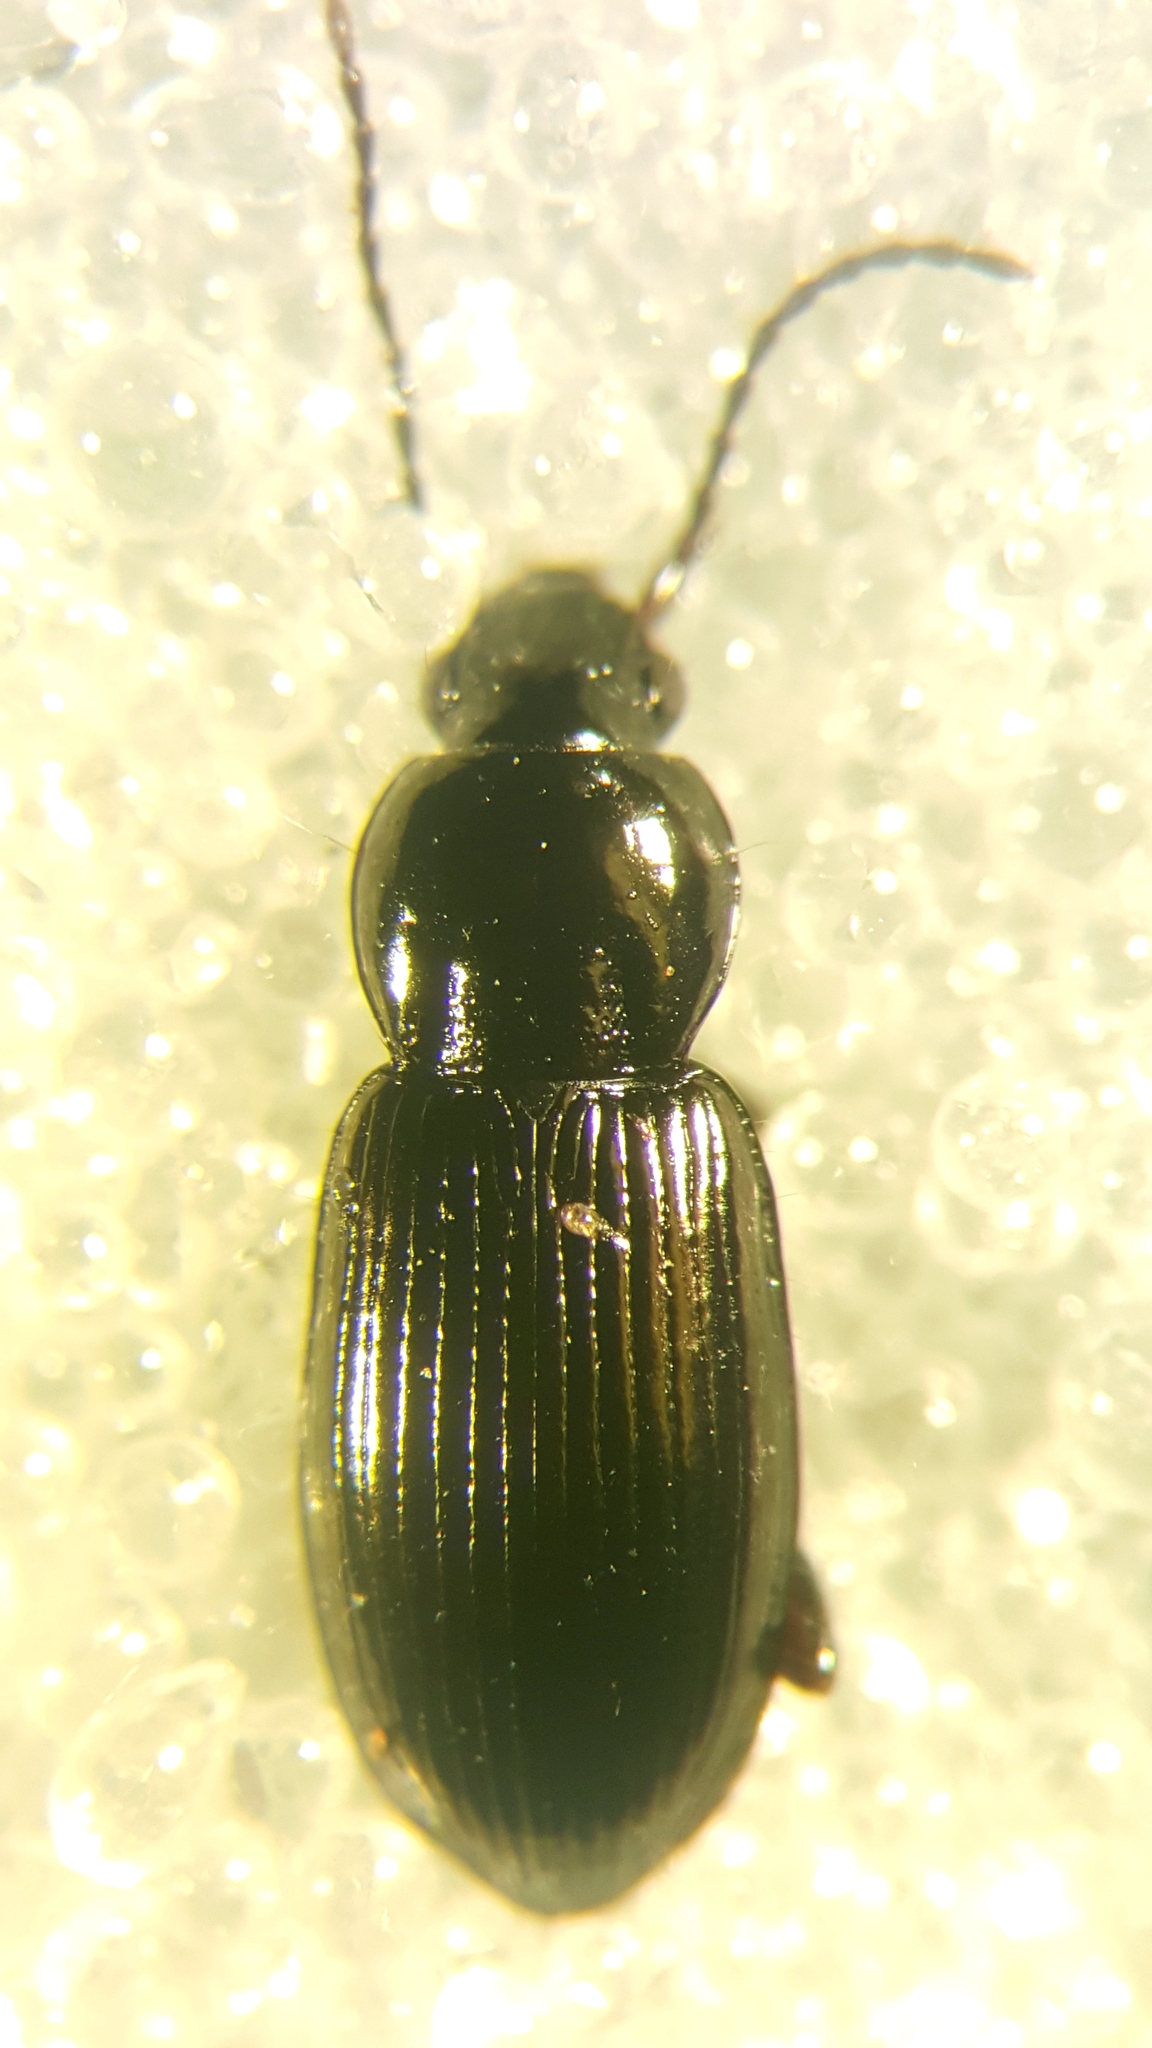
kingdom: Animalia
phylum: Arthropoda
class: Insecta
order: Coleoptera
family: Carabidae
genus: Pterostichus
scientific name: Pterostichus diligens
